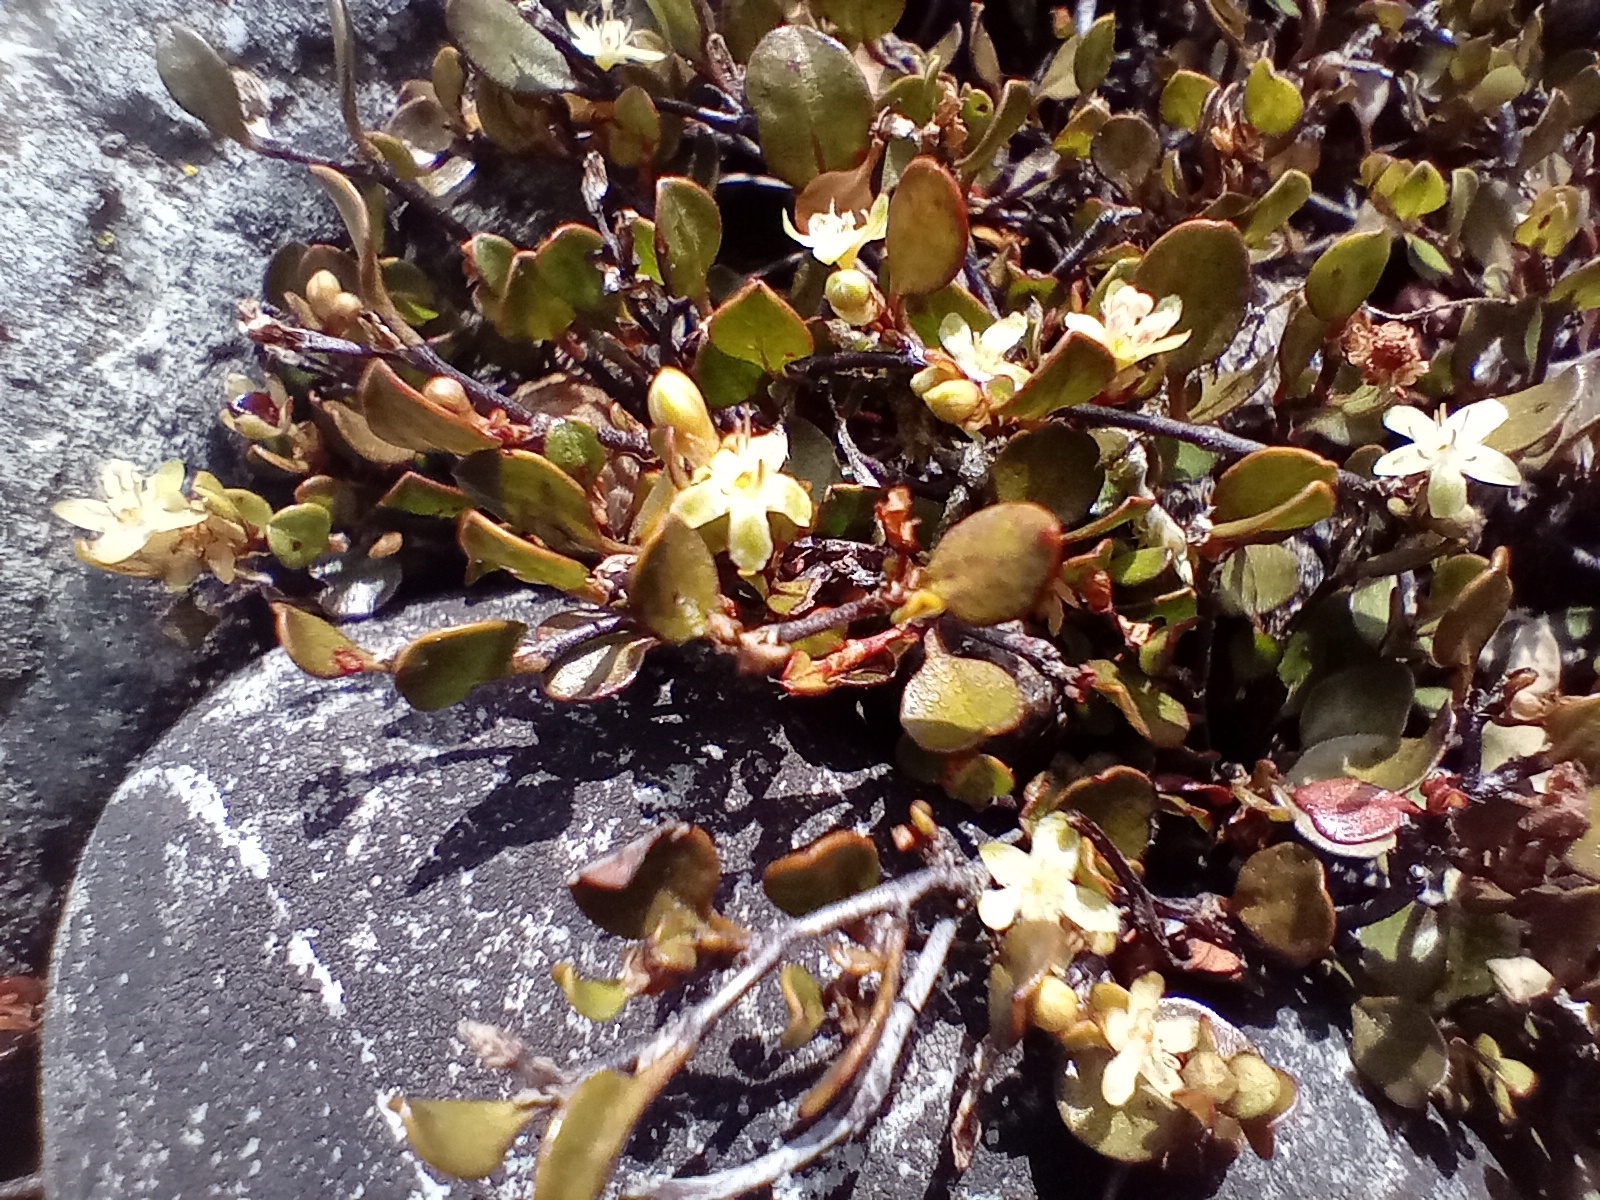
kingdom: Plantae
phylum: Tracheophyta
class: Magnoliopsida
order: Caryophyllales
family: Polygonaceae
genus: Muehlenbeckia
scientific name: Muehlenbeckia axillaris
